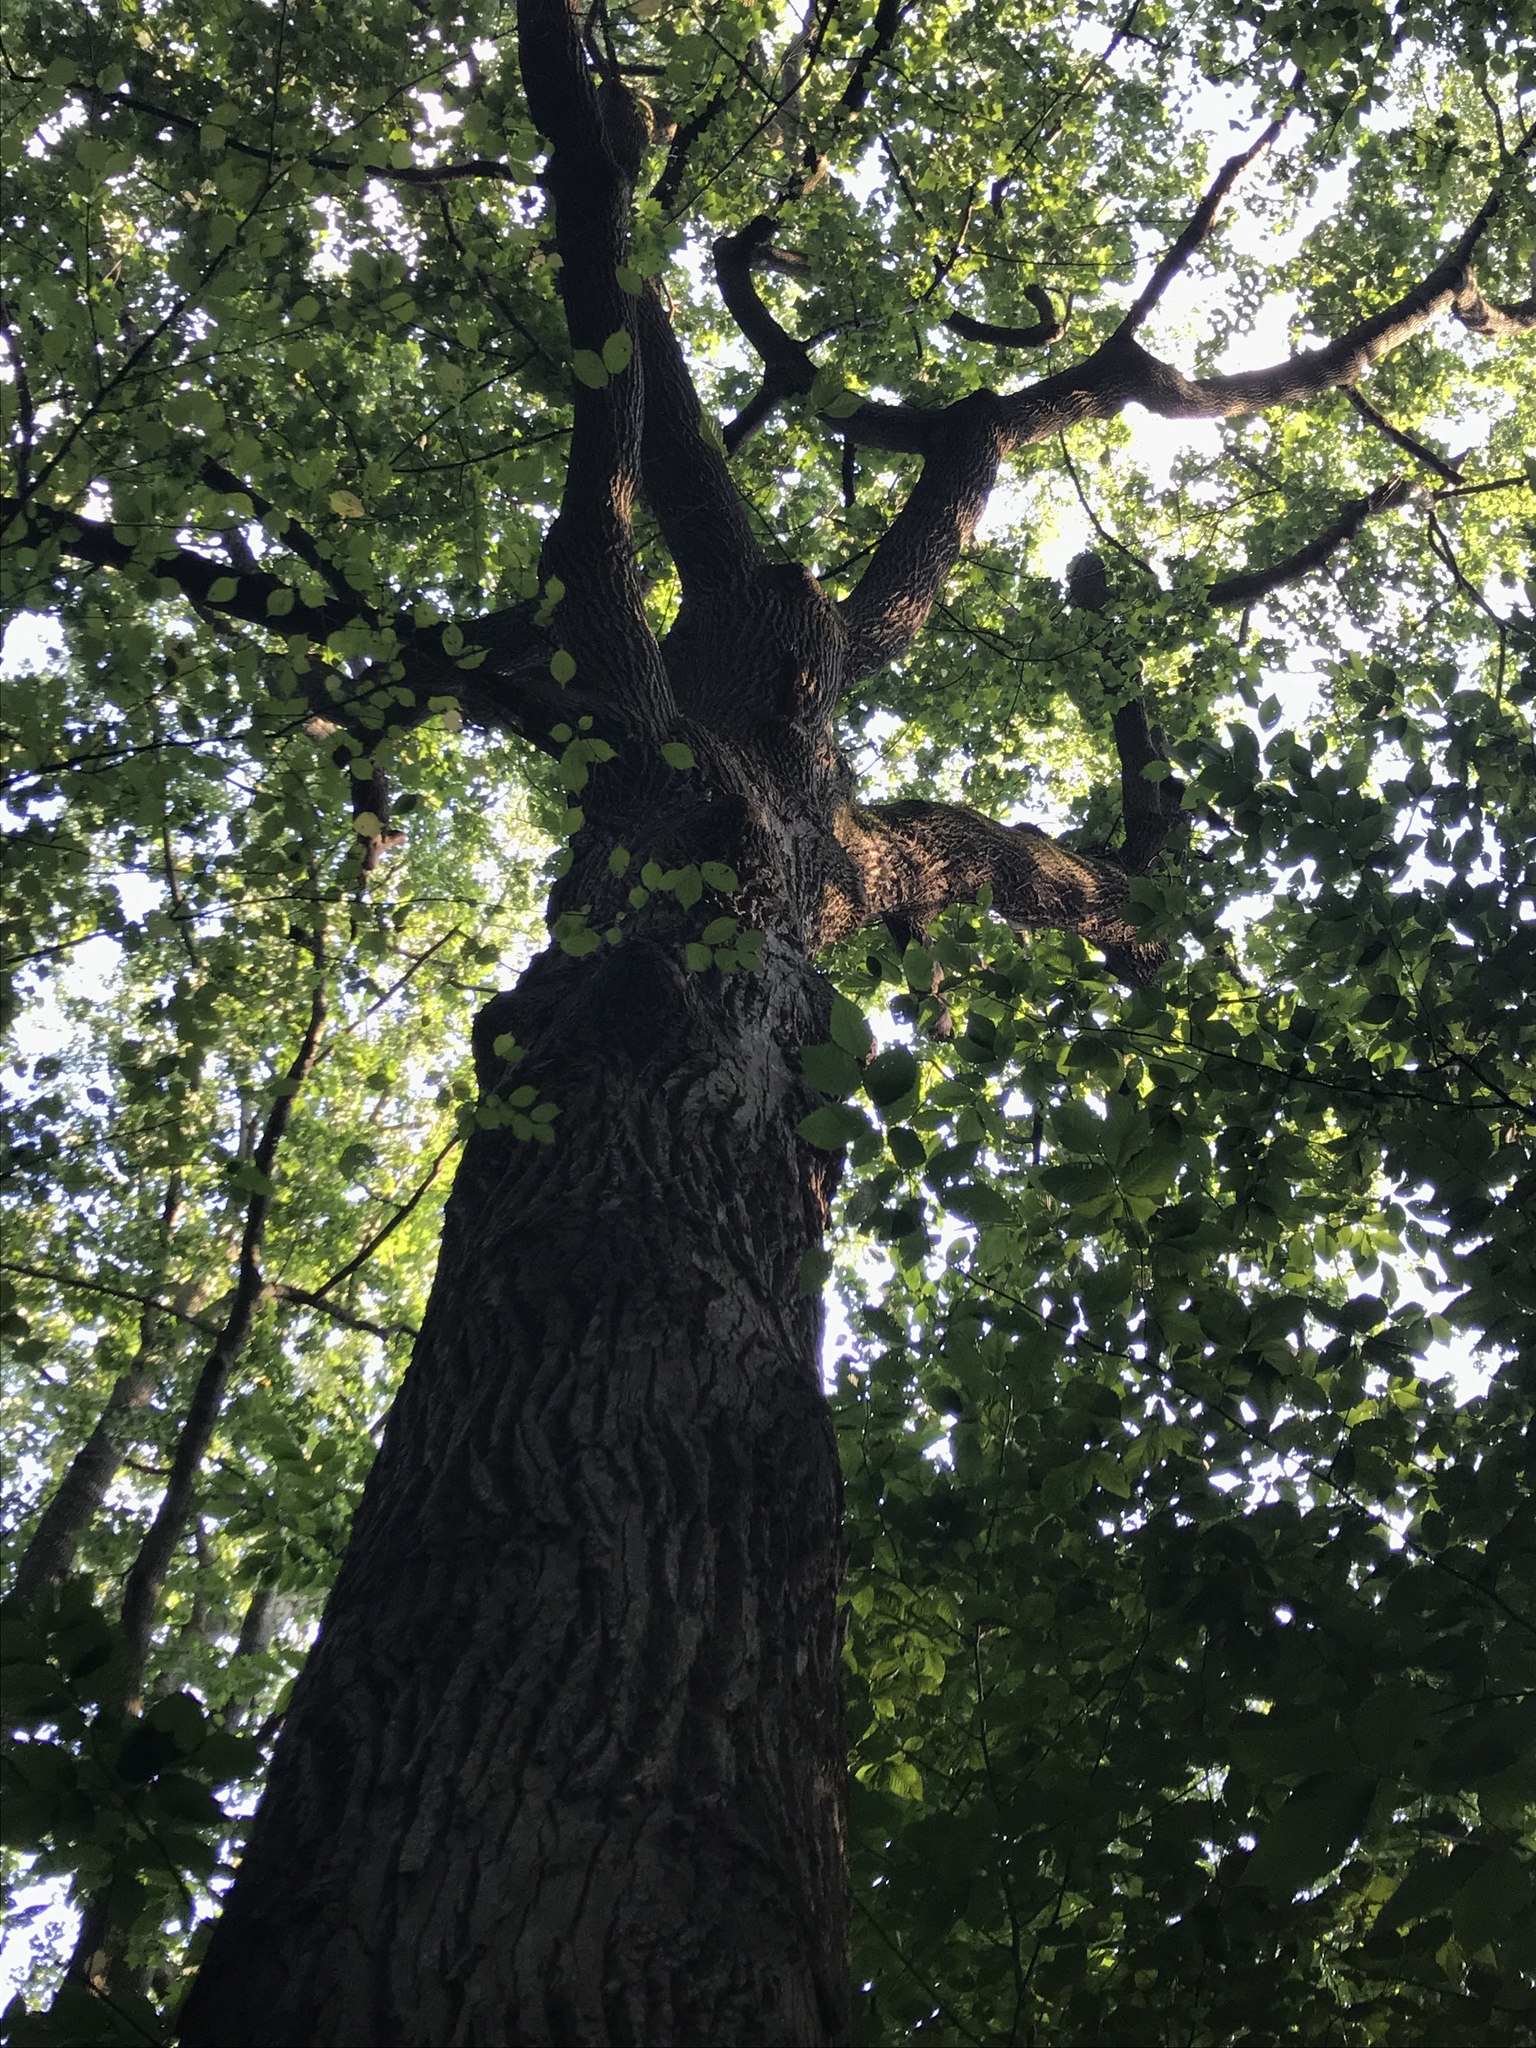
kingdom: Plantae
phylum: Tracheophyta
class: Magnoliopsida
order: Magnoliales
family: Magnoliaceae
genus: Liriodendron
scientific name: Liriodendron tulipifera
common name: Tulip tree
